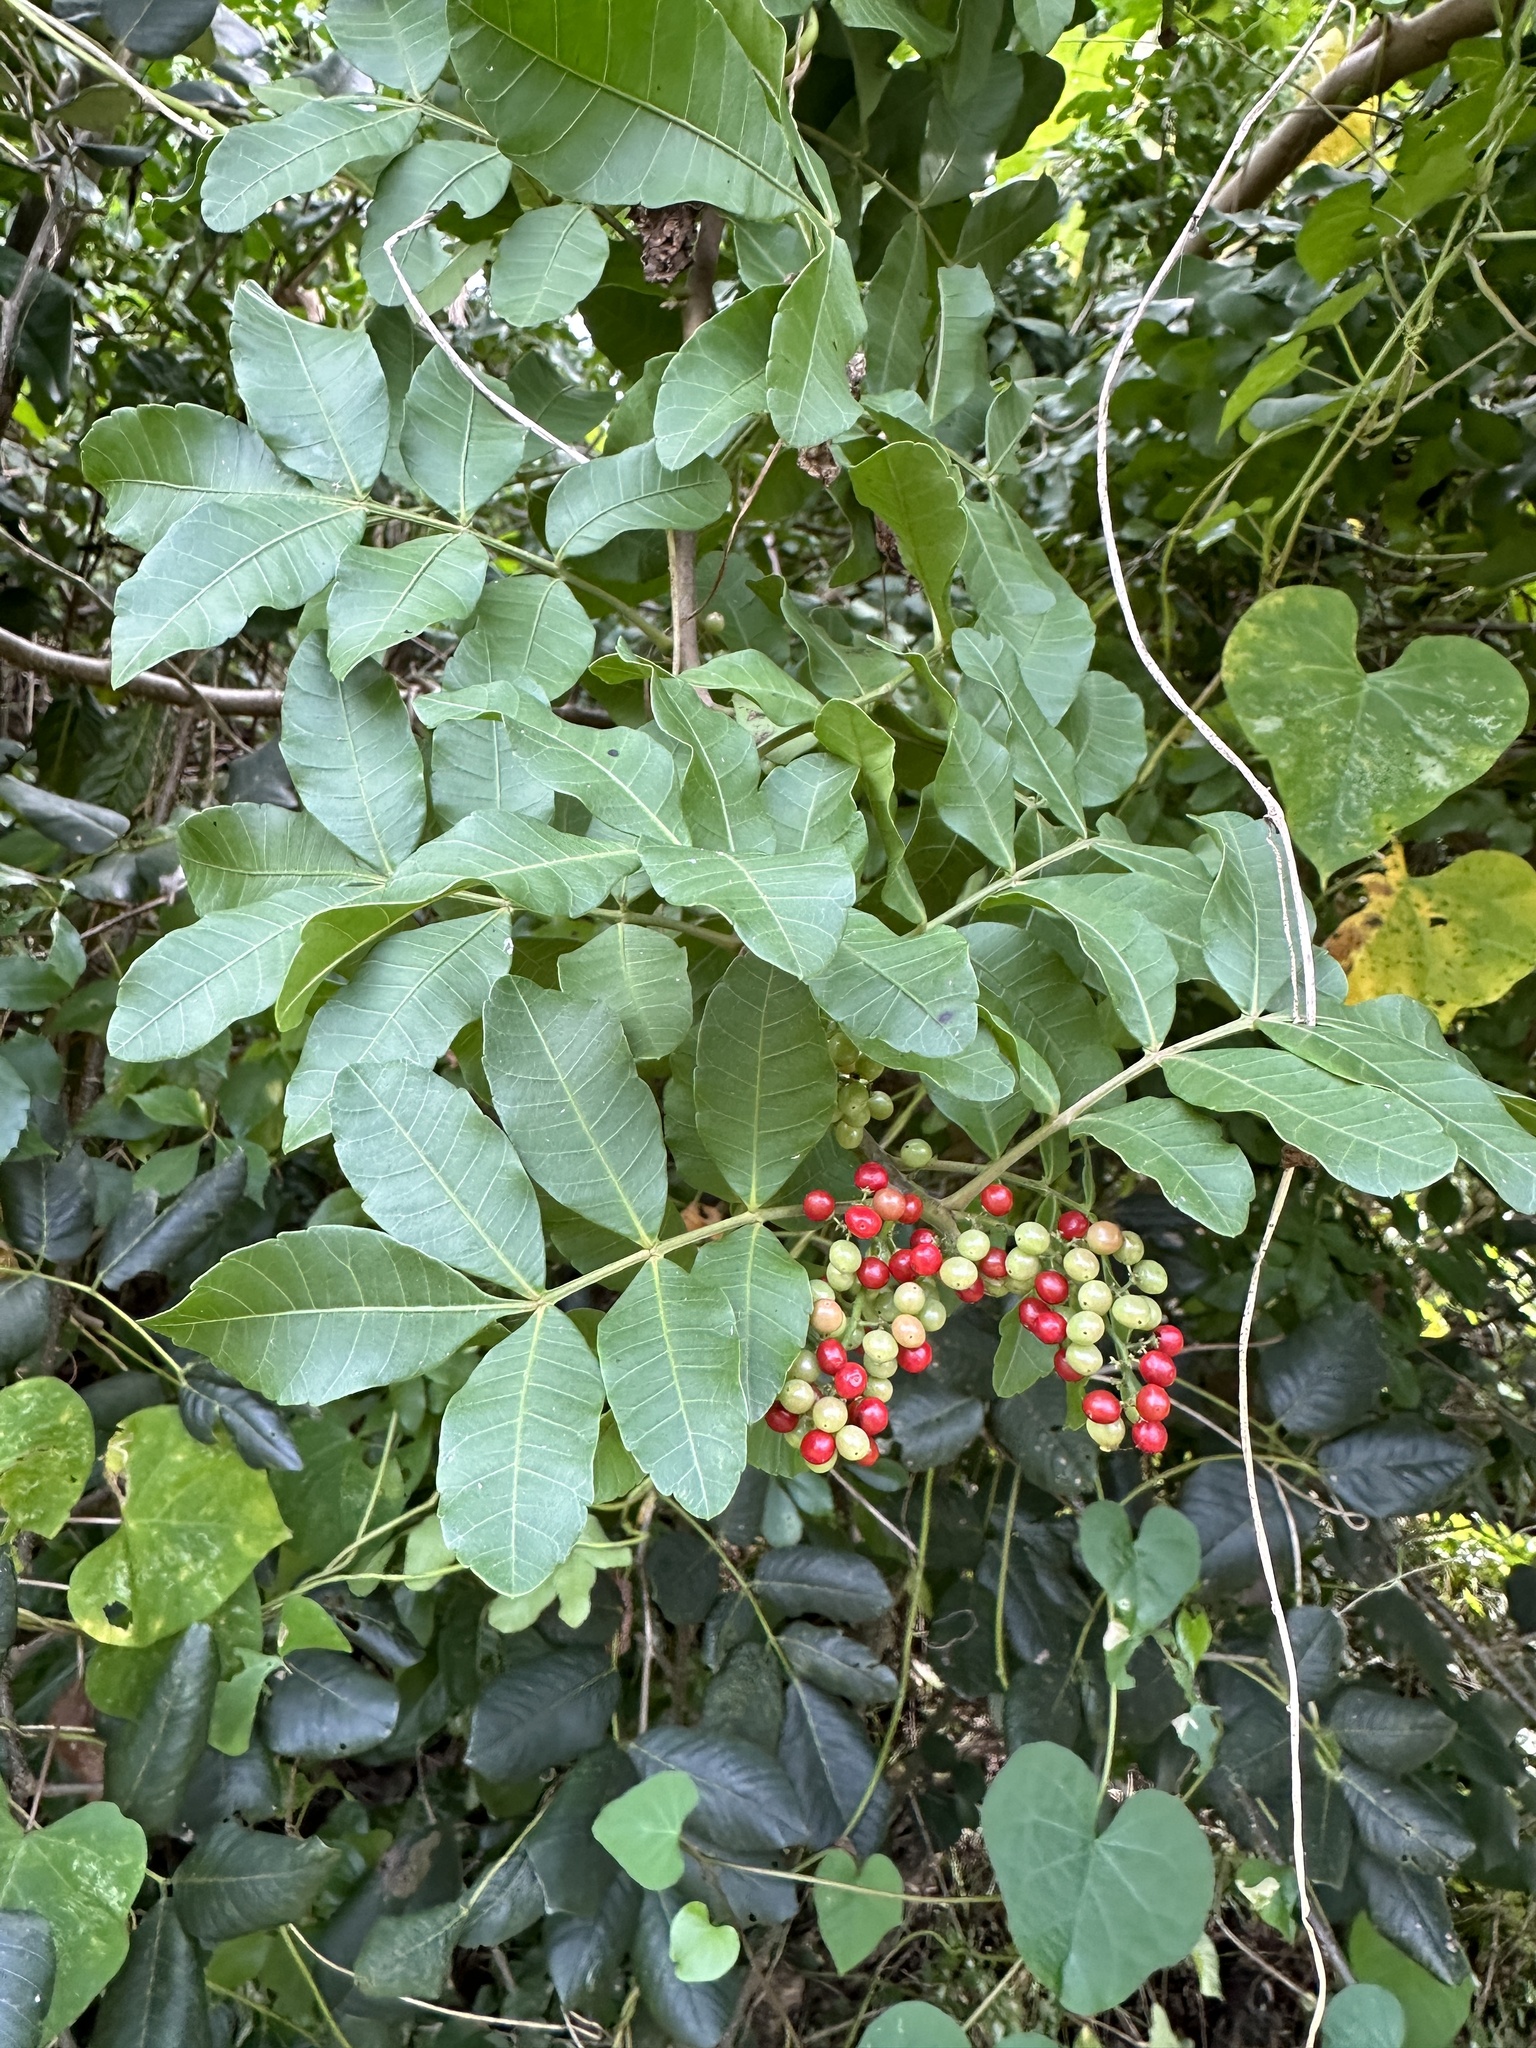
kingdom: Plantae
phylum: Tracheophyta
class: Magnoliopsida
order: Sapindales
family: Anacardiaceae
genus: Schinus
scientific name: Schinus terebinthifolia
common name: Brazilian peppertree
